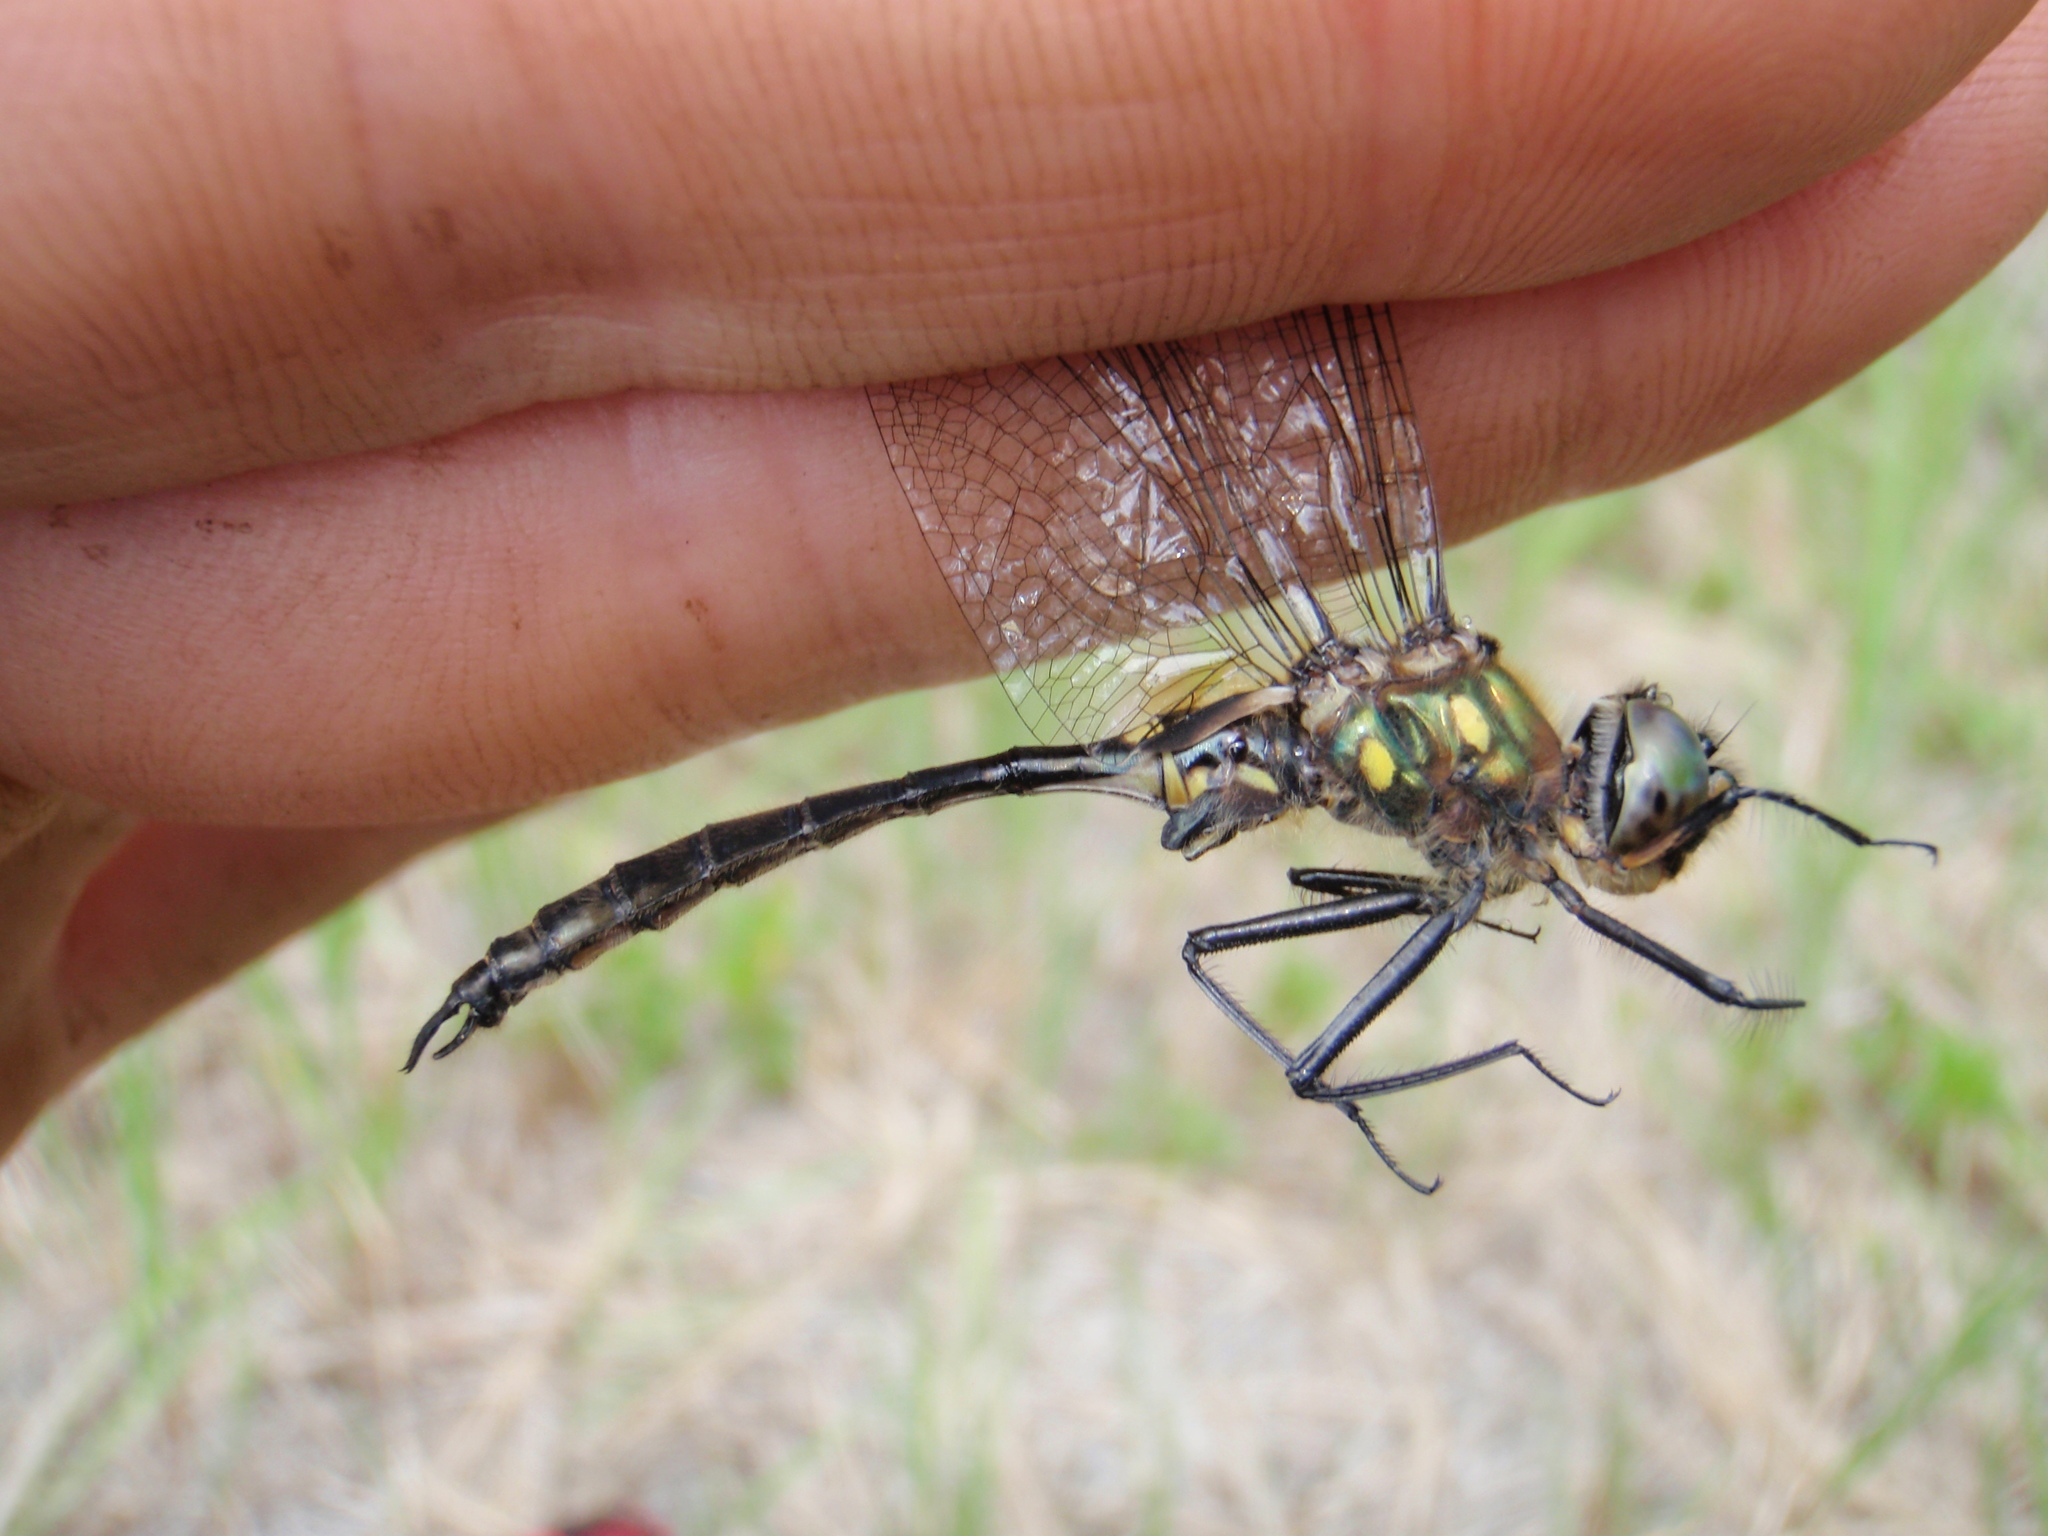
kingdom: Animalia
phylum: Arthropoda
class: Insecta
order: Odonata
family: Corduliidae
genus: Somatochlora
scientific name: Somatochlora minor
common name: Ocellated emerald
